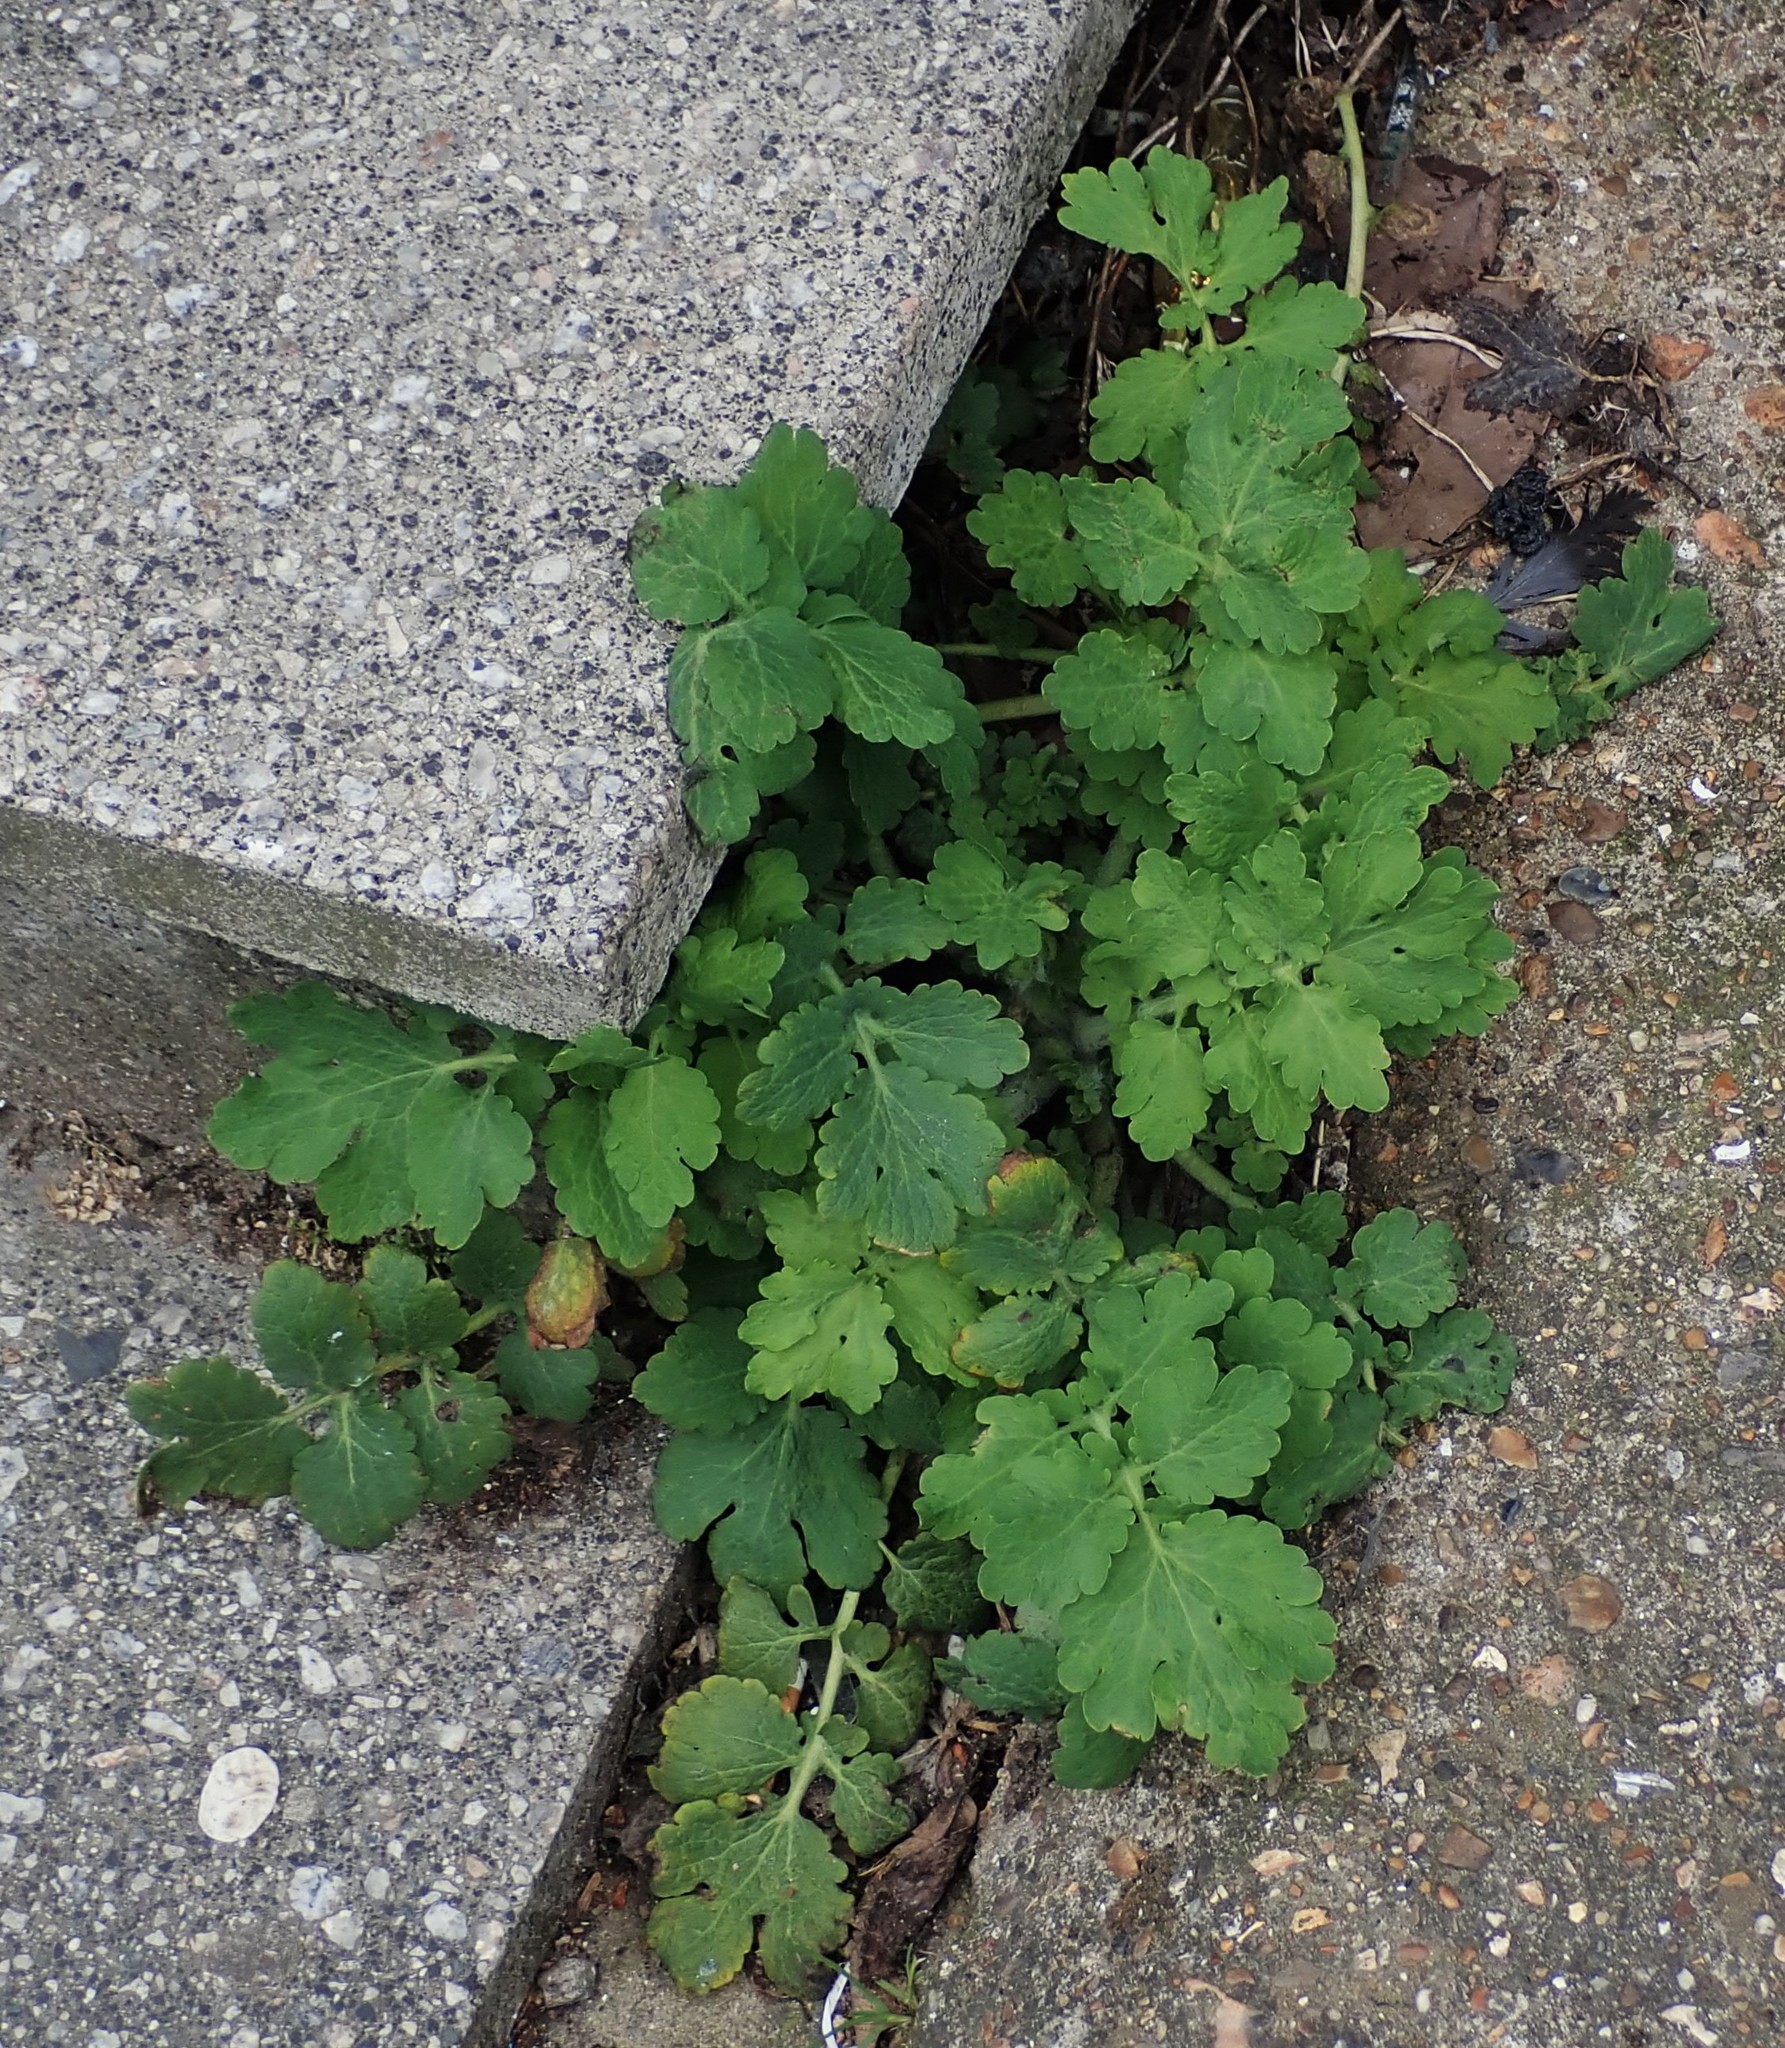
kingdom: Plantae
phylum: Tracheophyta
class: Magnoliopsida
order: Ranunculales
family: Papaveraceae
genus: Chelidonium
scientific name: Chelidonium majus
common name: Greater celandine
